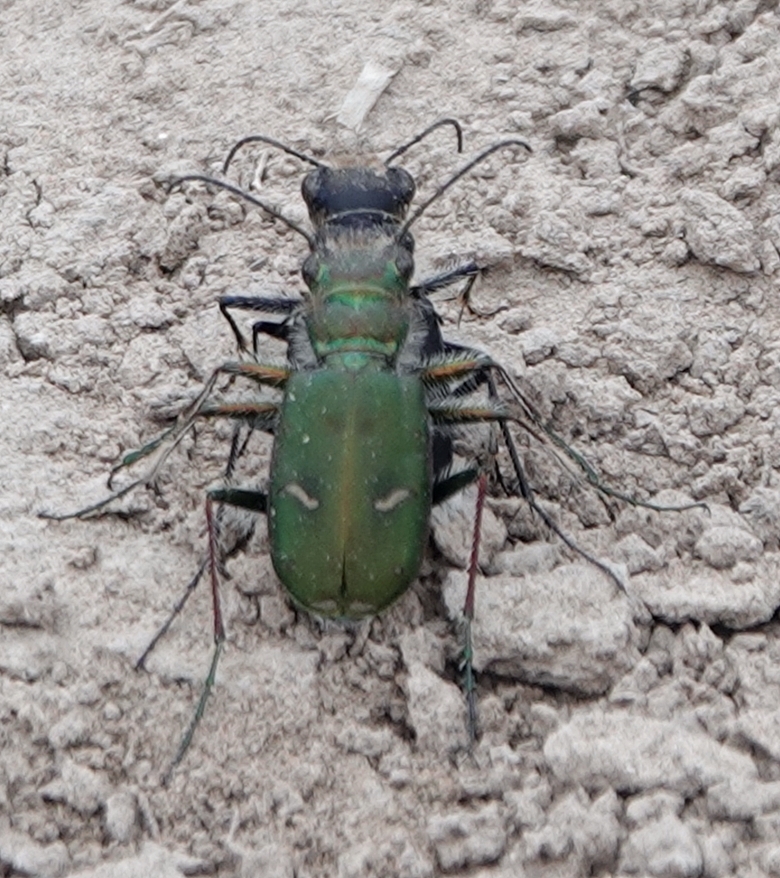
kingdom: Animalia
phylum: Arthropoda
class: Insecta
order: Coleoptera
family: Carabidae
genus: Cicindela
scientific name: Cicindela purpurea
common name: Cow path tiger beetle
